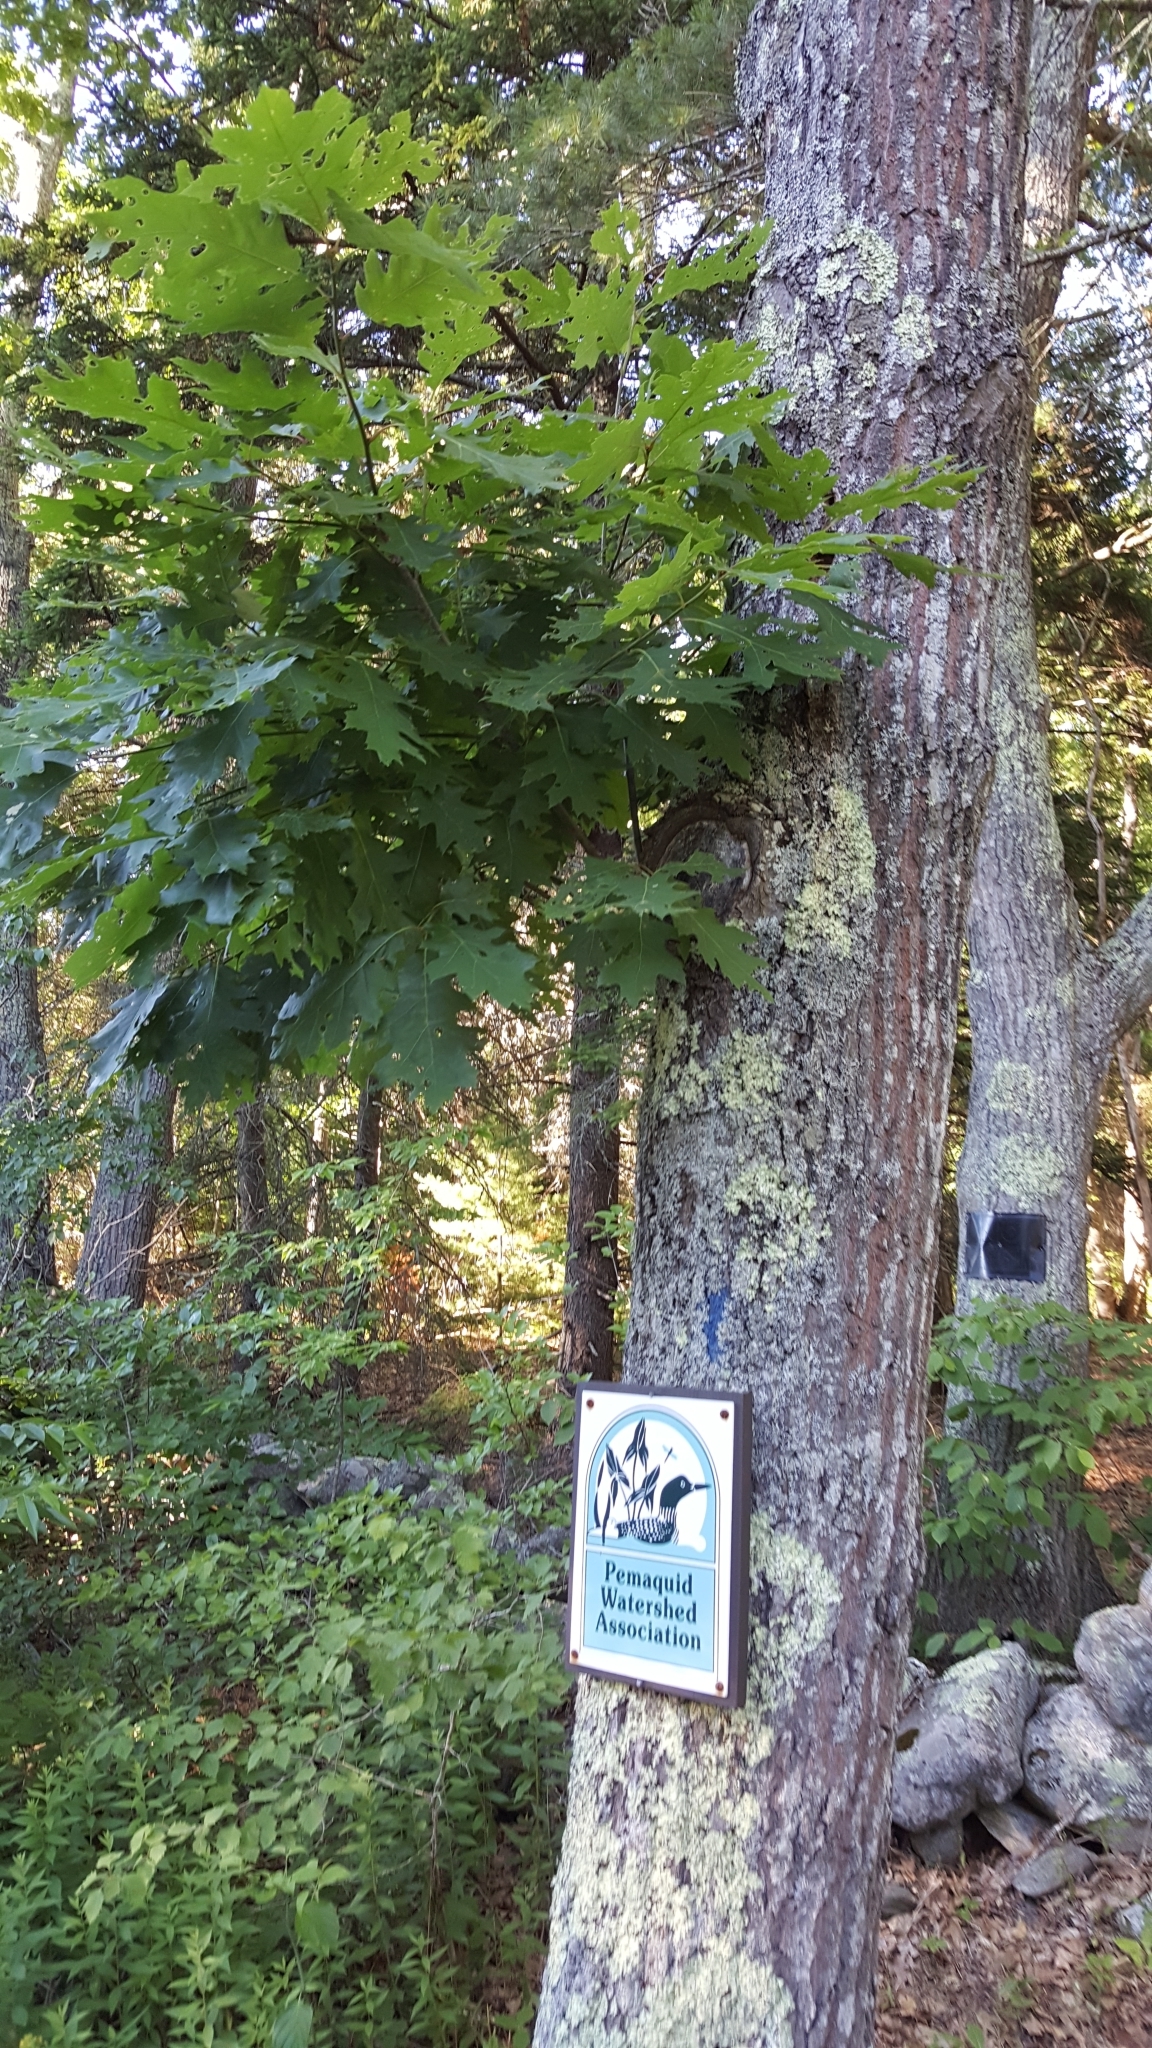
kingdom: Plantae
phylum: Tracheophyta
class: Magnoliopsida
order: Fagales
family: Fagaceae
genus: Quercus
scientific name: Quercus rubra
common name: Red oak
